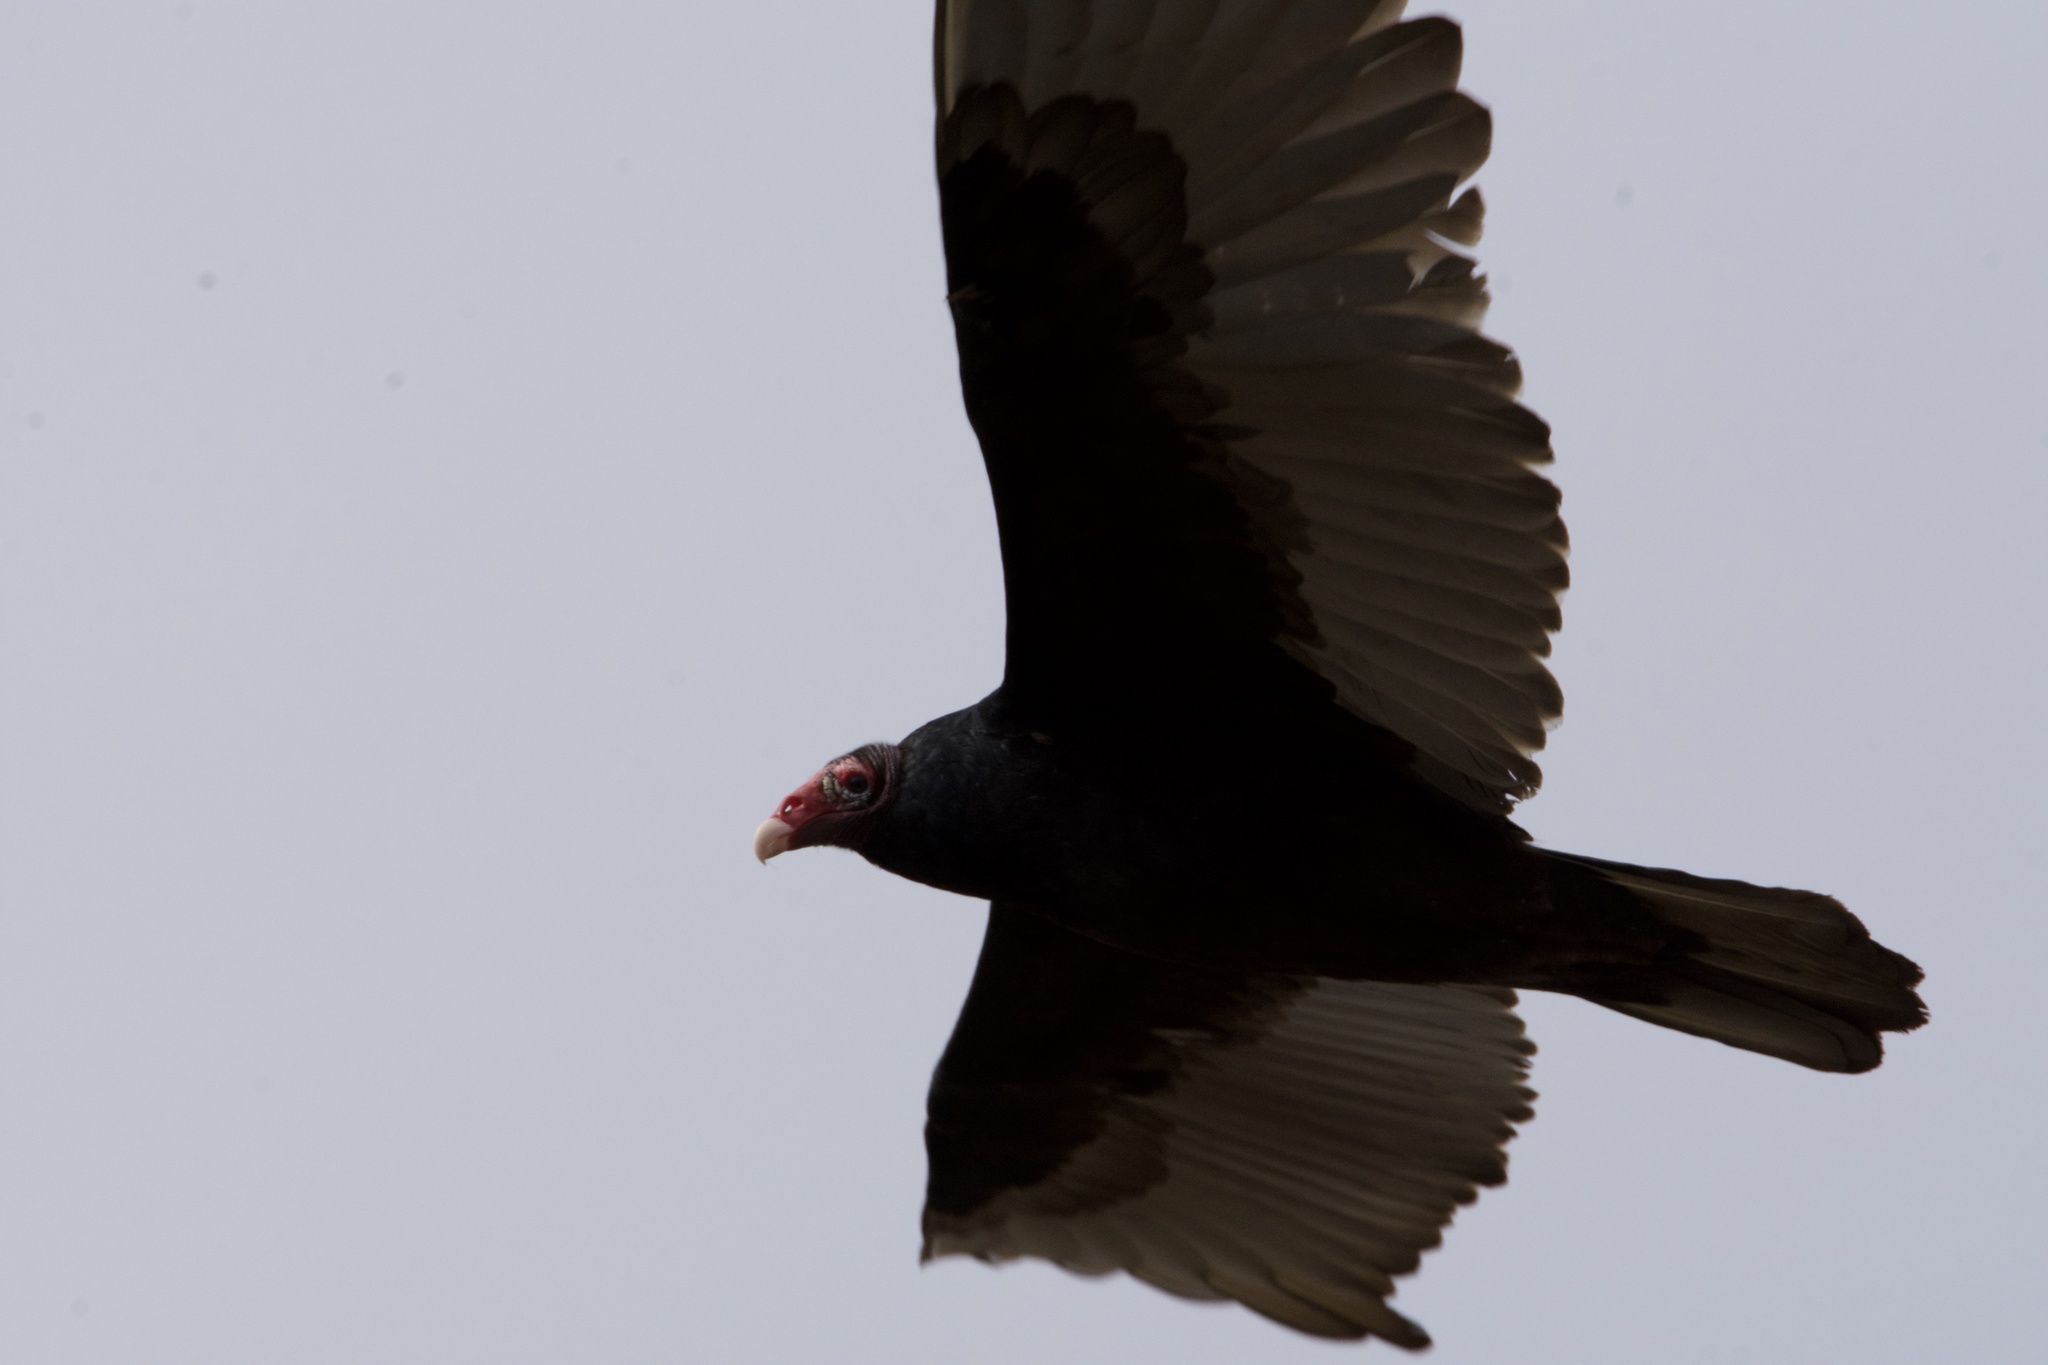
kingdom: Animalia
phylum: Chordata
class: Aves
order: Accipitriformes
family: Cathartidae
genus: Cathartes
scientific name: Cathartes aura
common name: Turkey vulture
